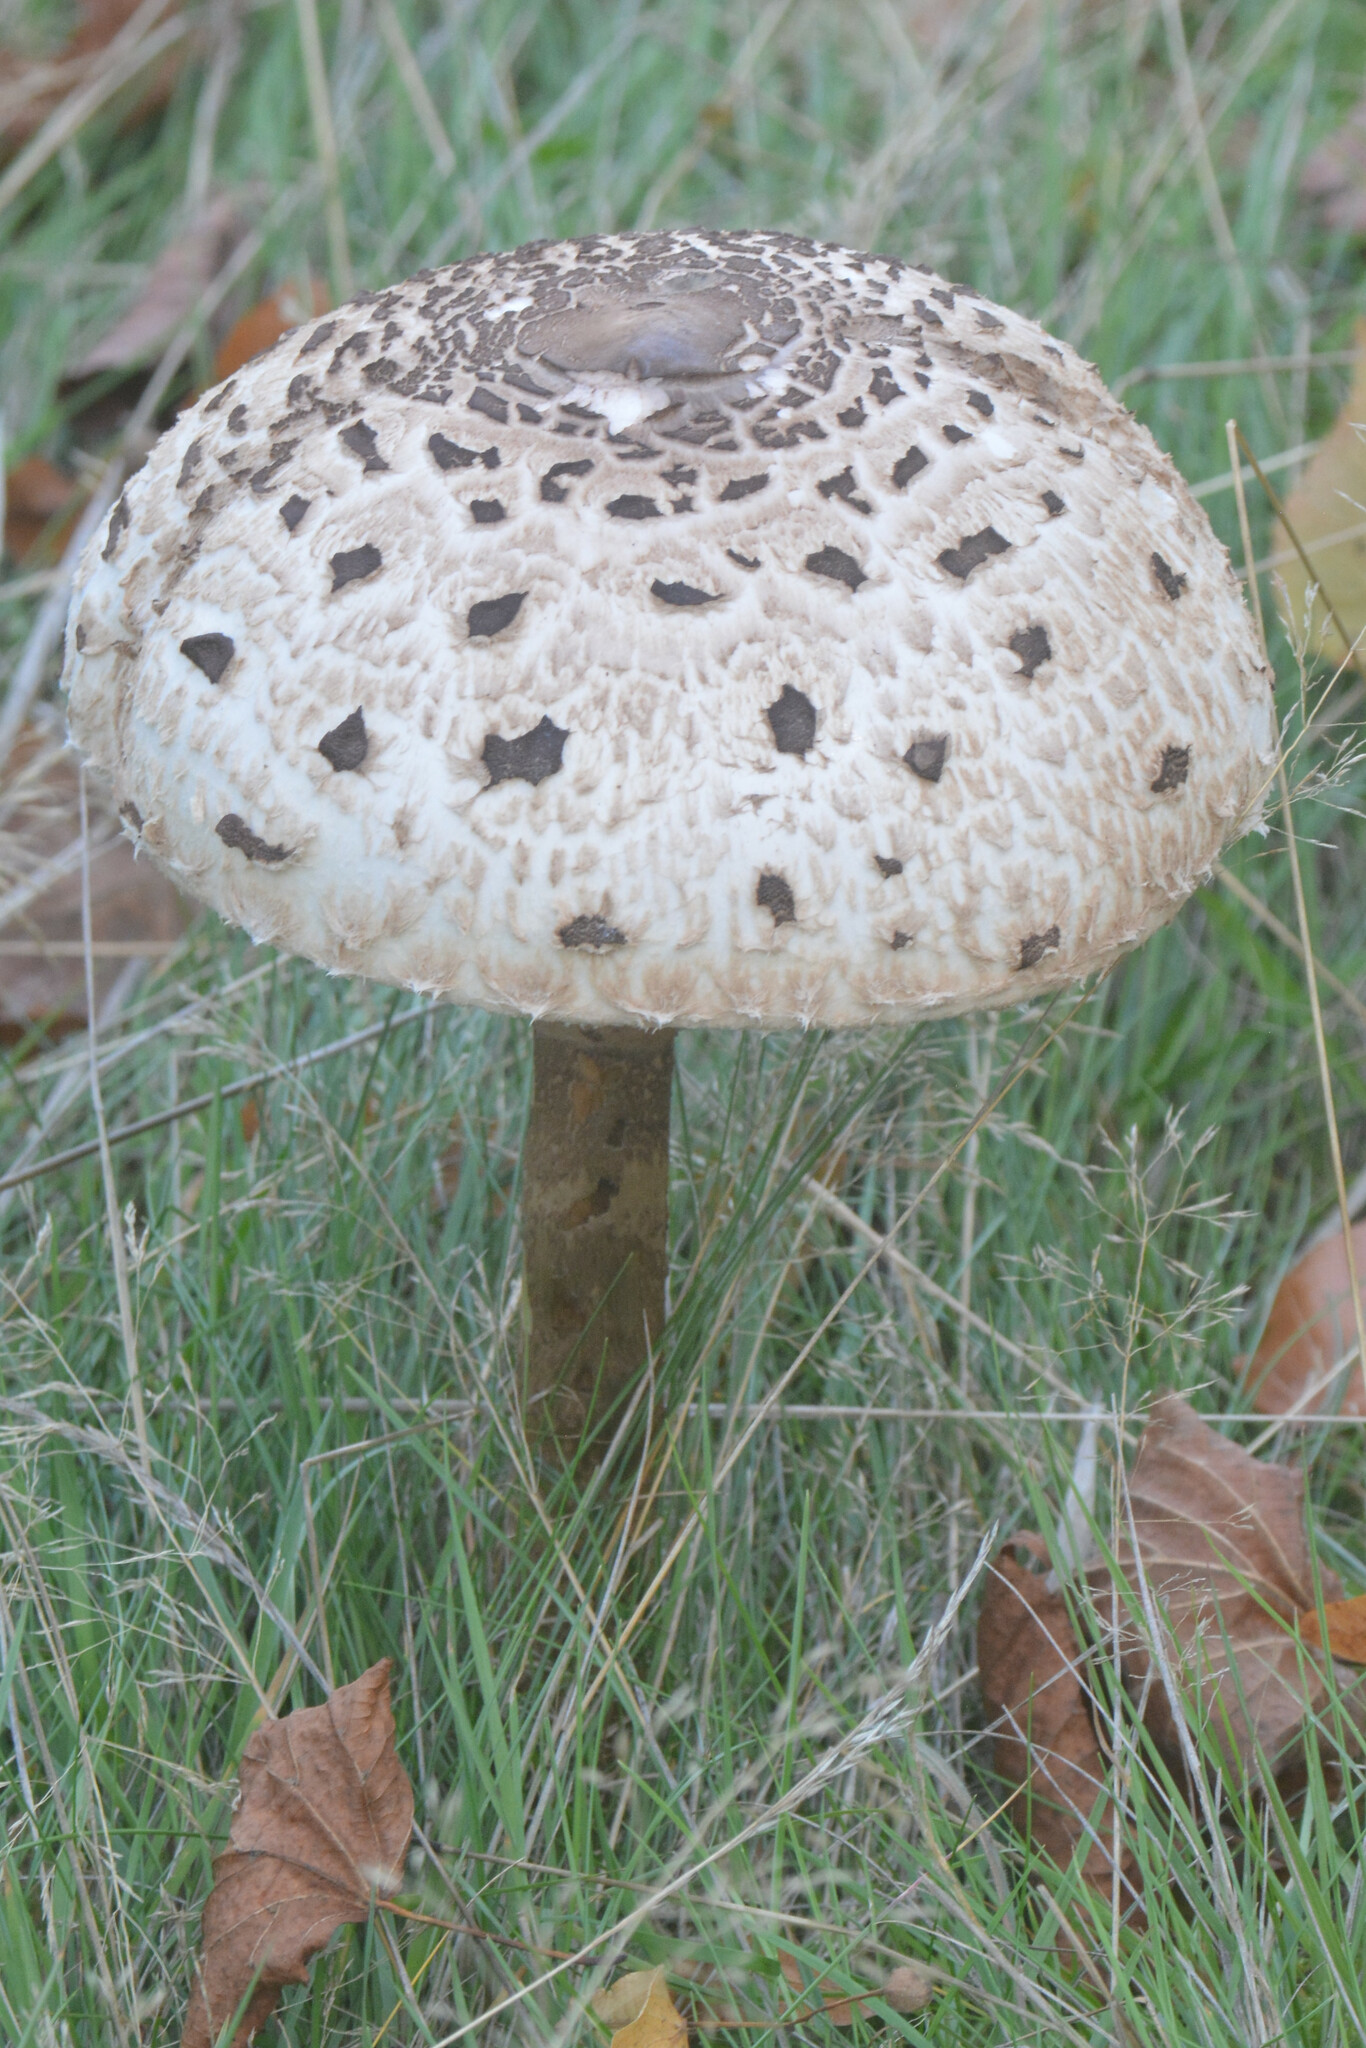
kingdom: Fungi
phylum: Basidiomycota
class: Agaricomycetes
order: Agaricales
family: Agaricaceae
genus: Macrolepiota
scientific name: Macrolepiota procera
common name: Parasol
